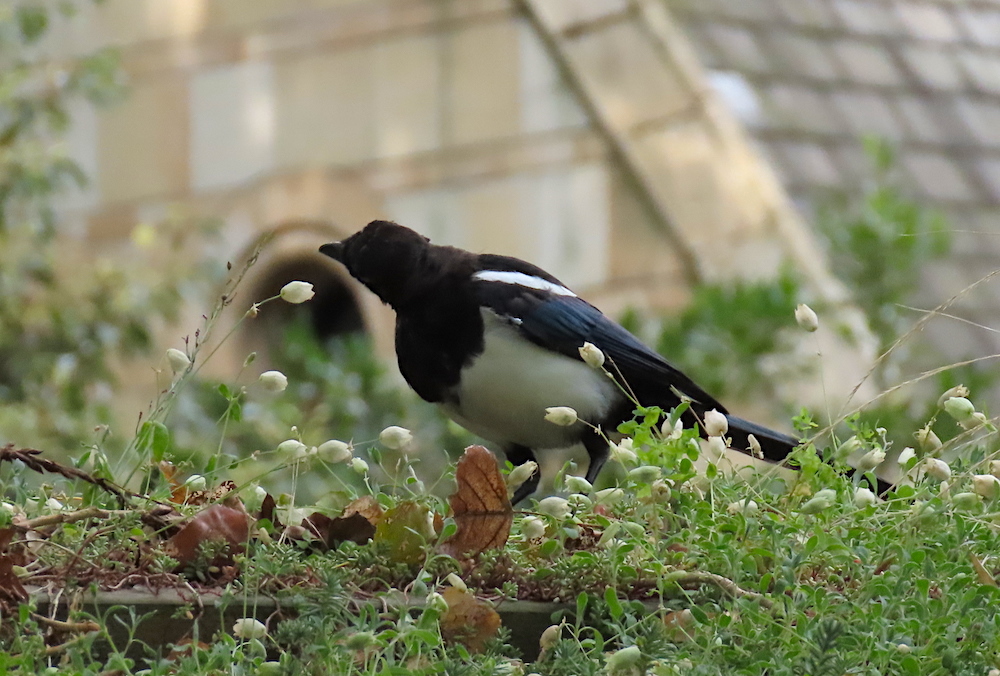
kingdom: Animalia
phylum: Chordata
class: Aves
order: Passeriformes
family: Corvidae
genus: Pica
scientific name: Pica pica
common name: Eurasian magpie
